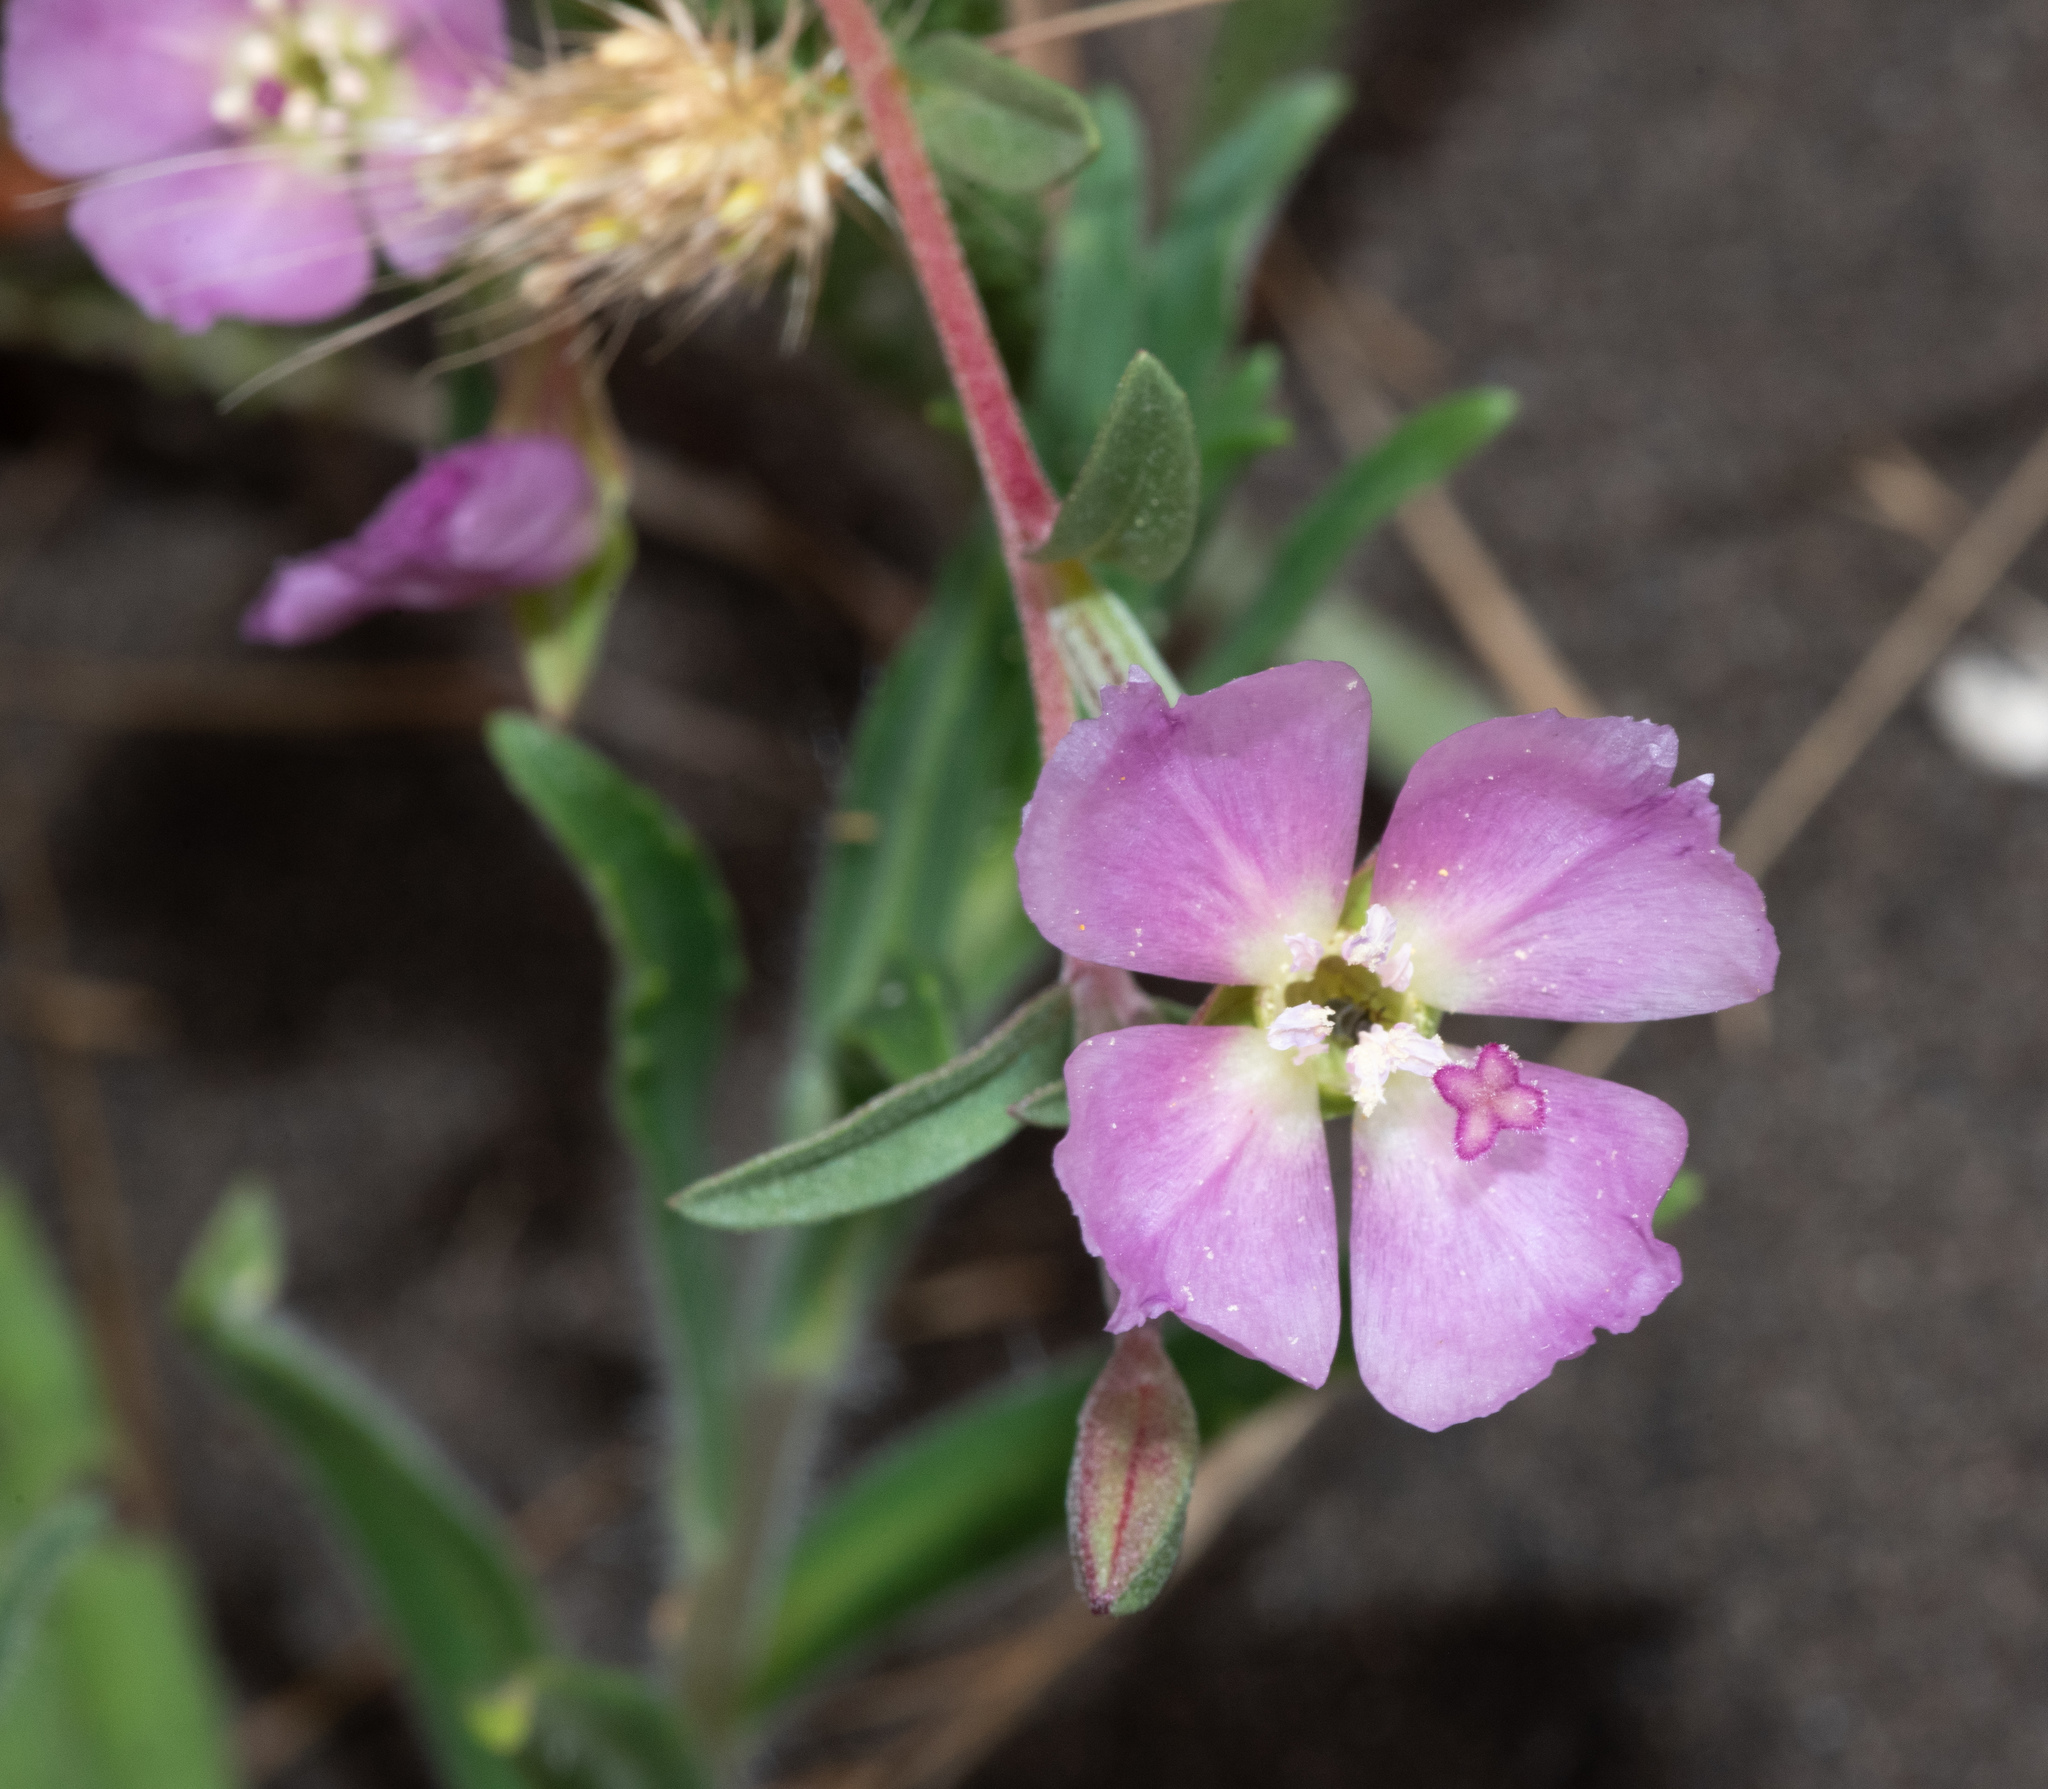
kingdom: Plantae
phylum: Tracheophyta
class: Magnoliopsida
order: Myrtales
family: Onagraceae
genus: Clarkia
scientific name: Clarkia davyi
